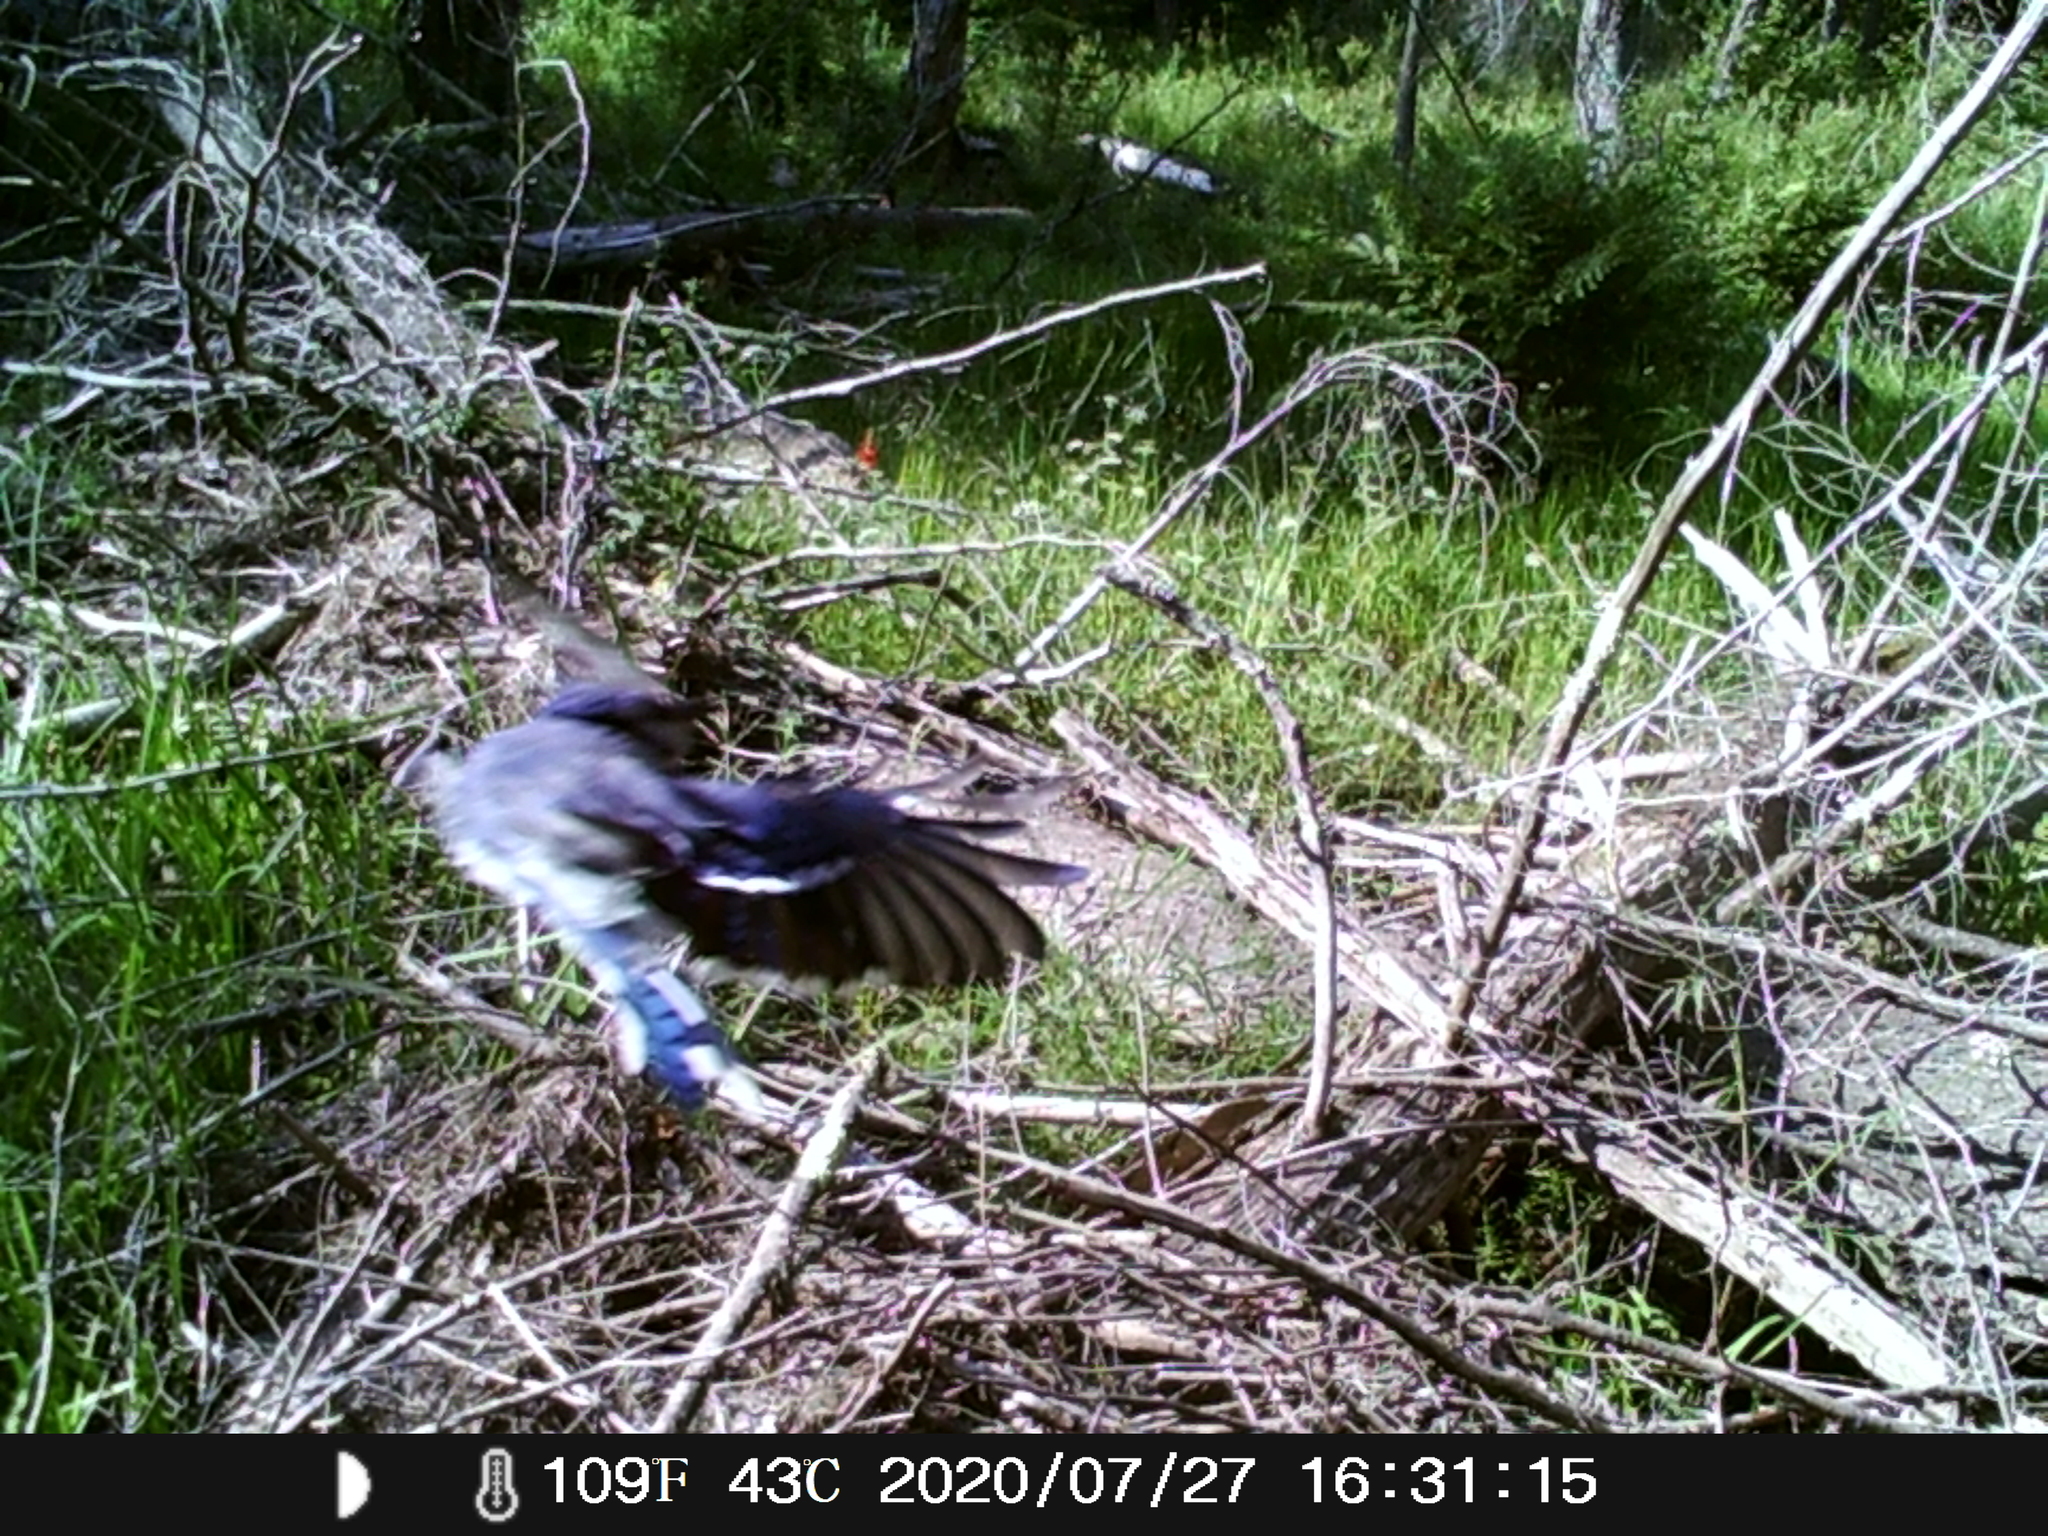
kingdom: Animalia
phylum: Chordata
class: Aves
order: Passeriformes
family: Corvidae
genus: Cyanocitta
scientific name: Cyanocitta cristata
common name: Blue jay
